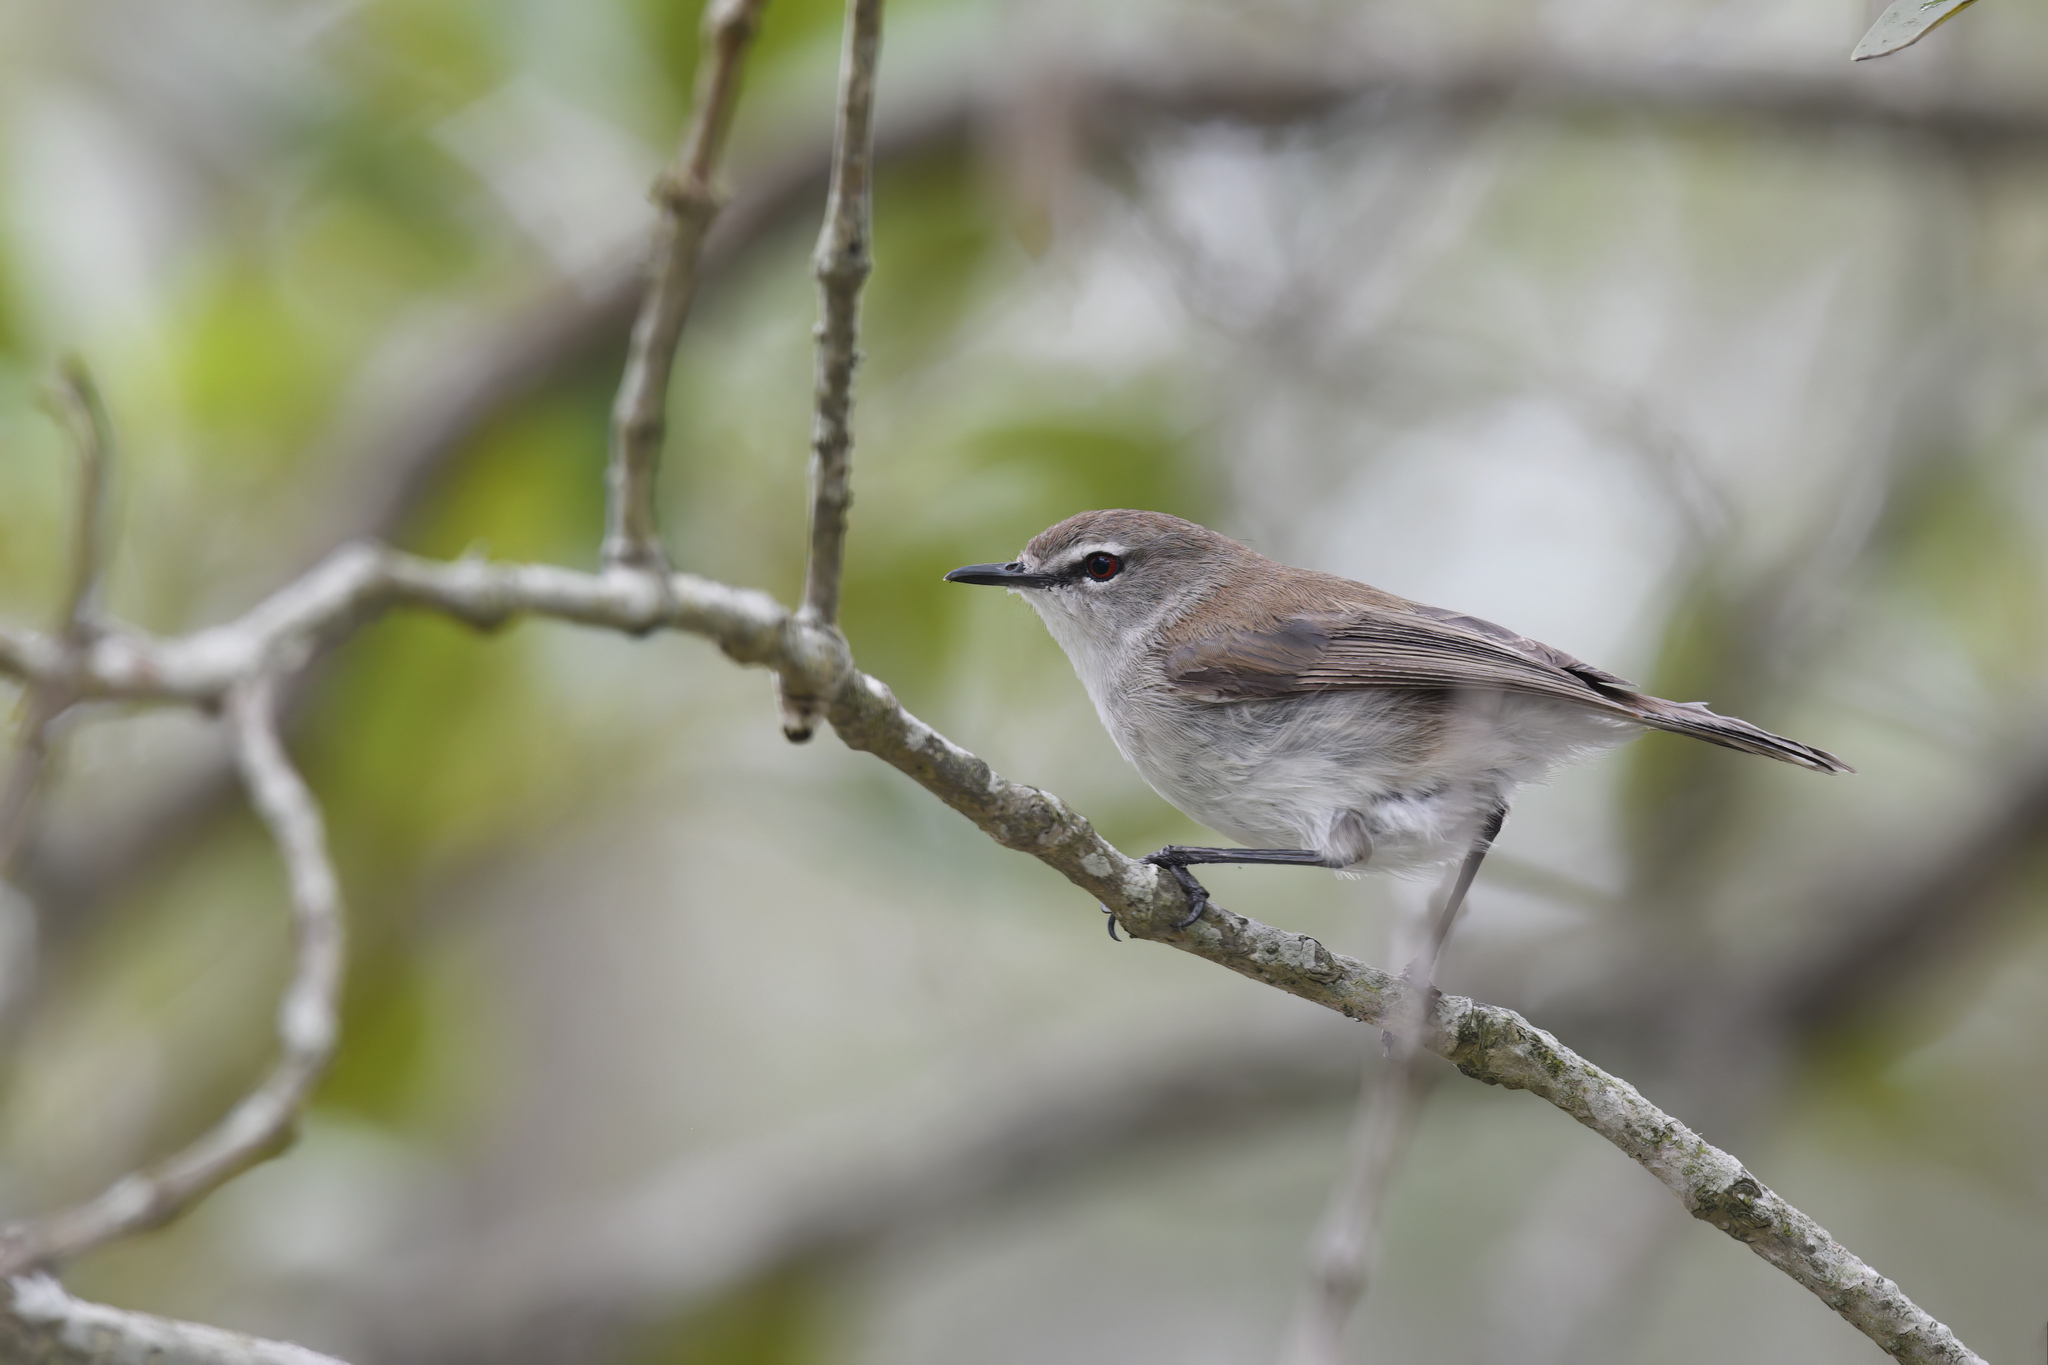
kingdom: Animalia
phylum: Chordata
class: Aves
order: Passeriformes
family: Acanthizidae
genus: Gerygone
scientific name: Gerygone levigaster
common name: Mangrove gerygone
